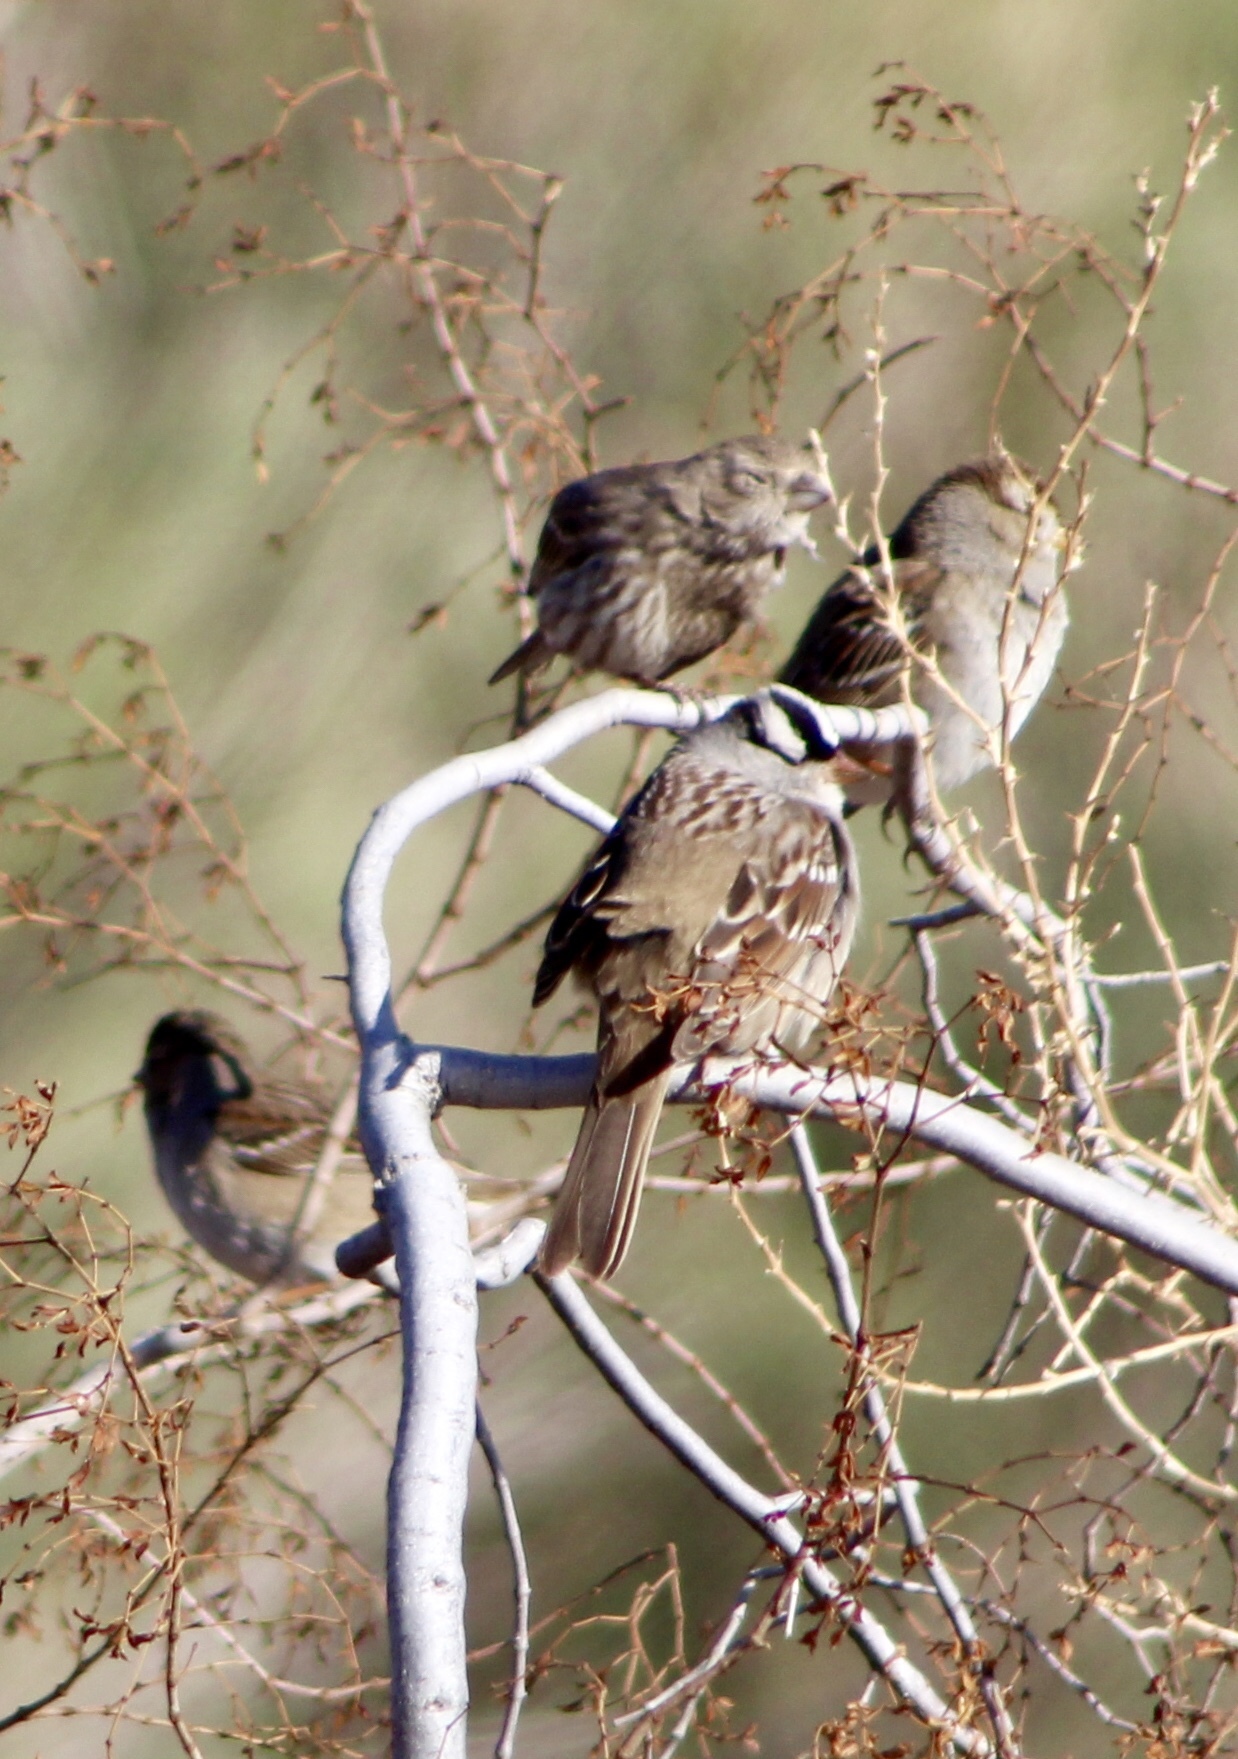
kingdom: Animalia
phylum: Chordata
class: Aves
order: Passeriformes
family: Passerellidae
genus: Zonotrichia
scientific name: Zonotrichia leucophrys
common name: White-crowned sparrow
